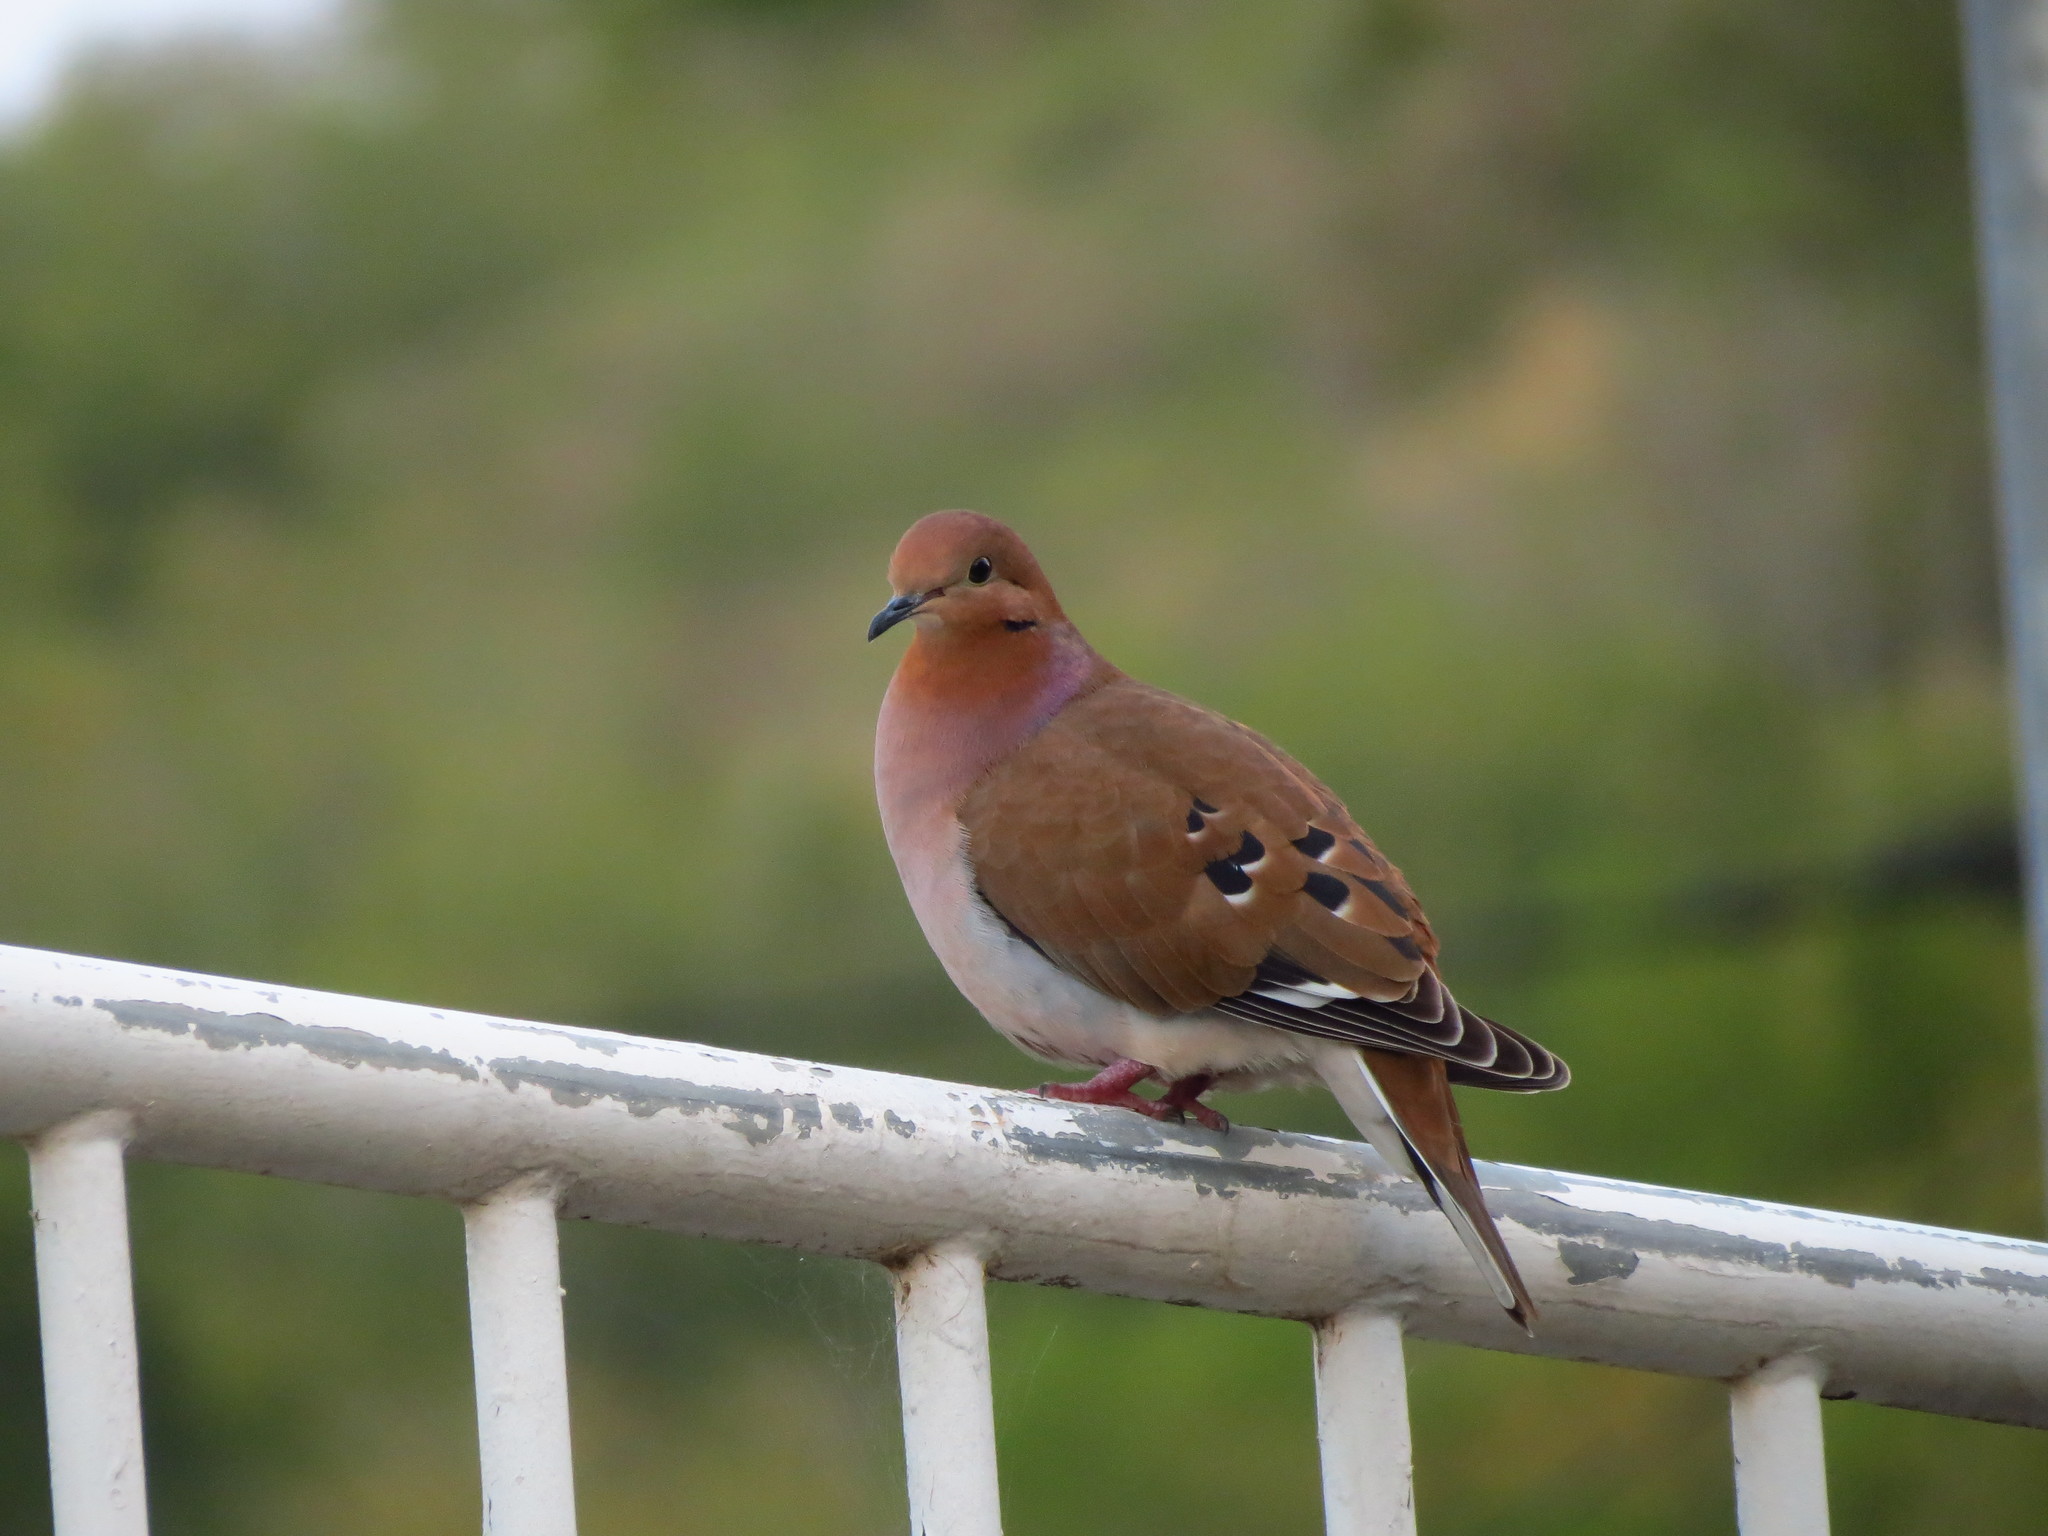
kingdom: Animalia
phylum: Chordata
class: Aves
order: Columbiformes
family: Columbidae
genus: Zenaida
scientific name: Zenaida aurita
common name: Zenaida dove
